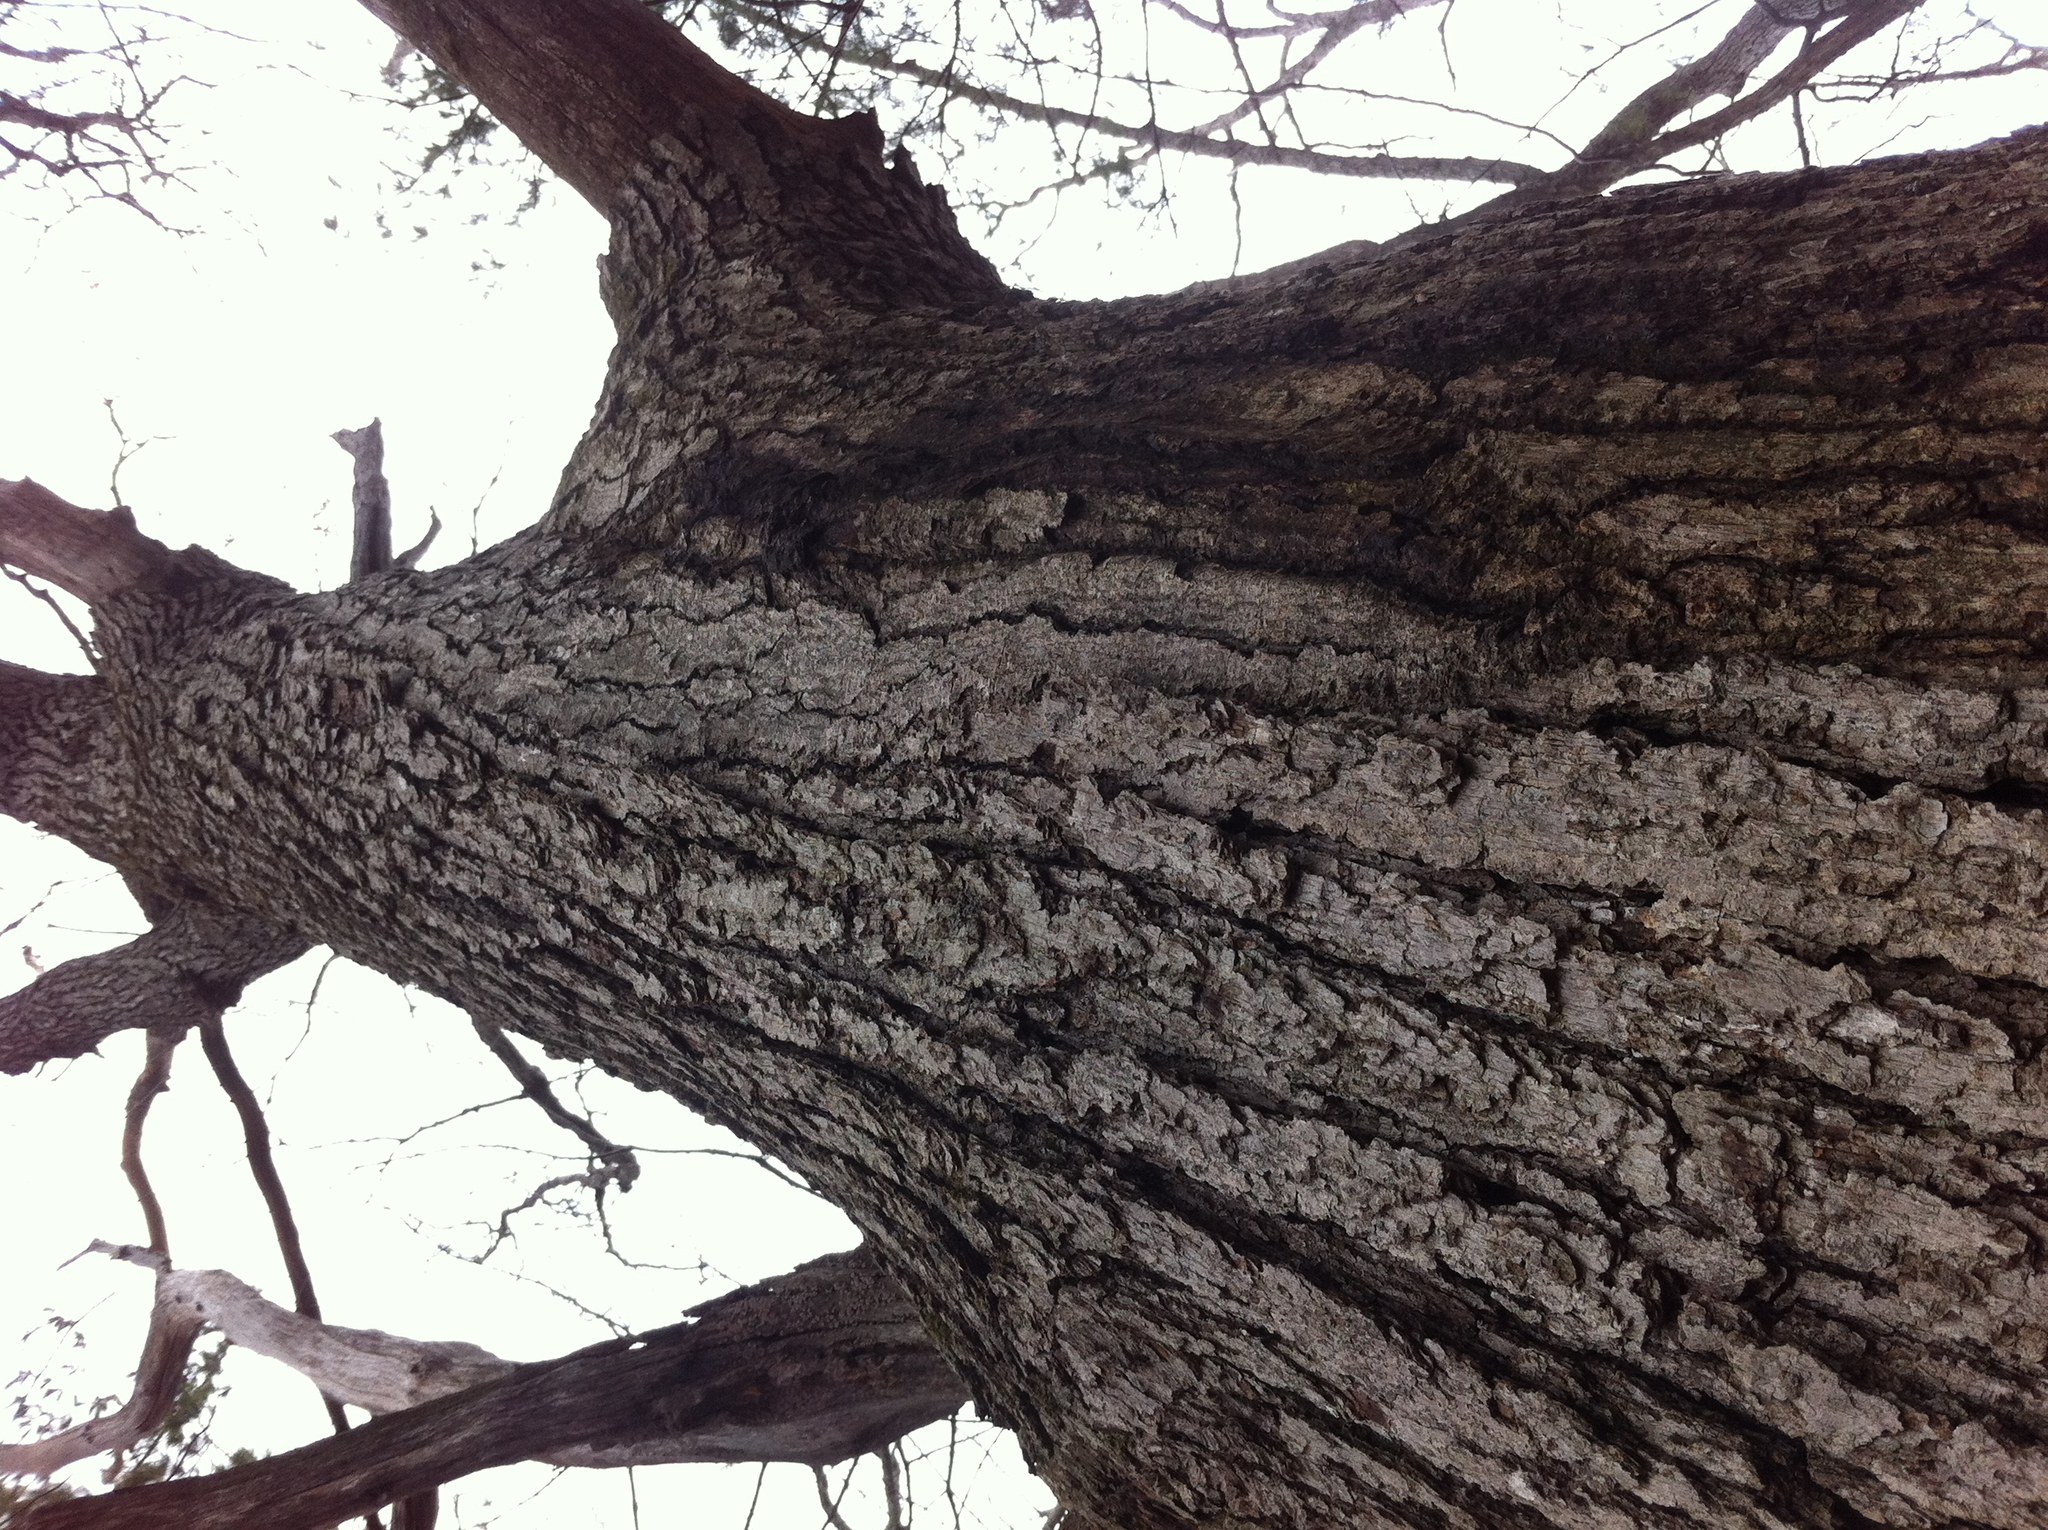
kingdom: Plantae
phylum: Tracheophyta
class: Magnoliopsida
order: Fagales
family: Fagaceae
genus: Quercus
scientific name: Quercus alba
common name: White oak
